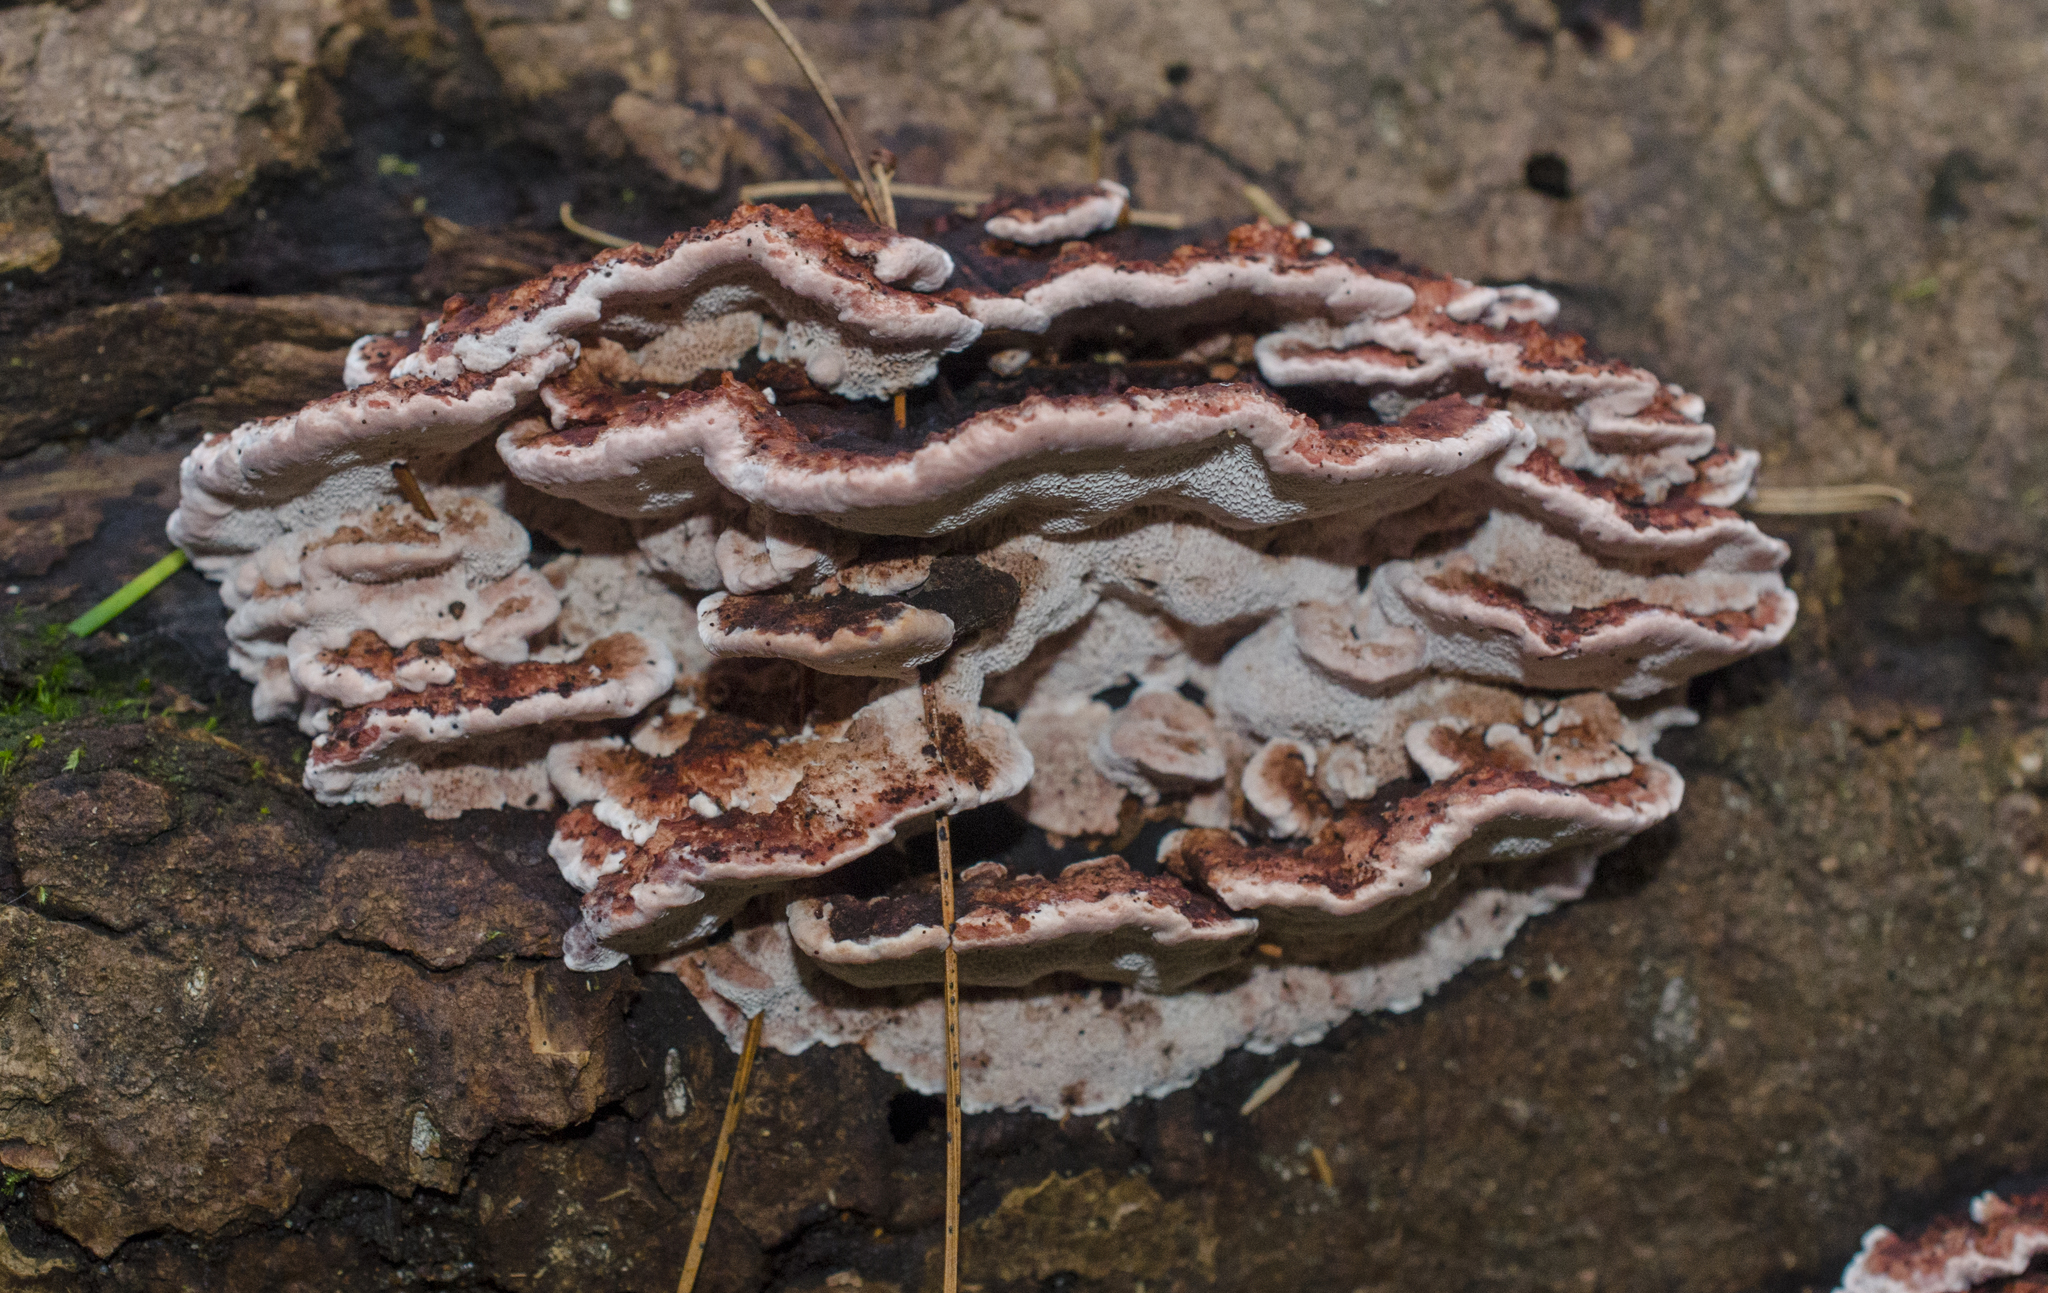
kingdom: Fungi
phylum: Basidiomycota
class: Agaricomycetes
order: Polyporales
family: Fomitopsidaceae
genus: Rhodofomes
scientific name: Rhodofomes cajanderi
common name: Rosy conk
